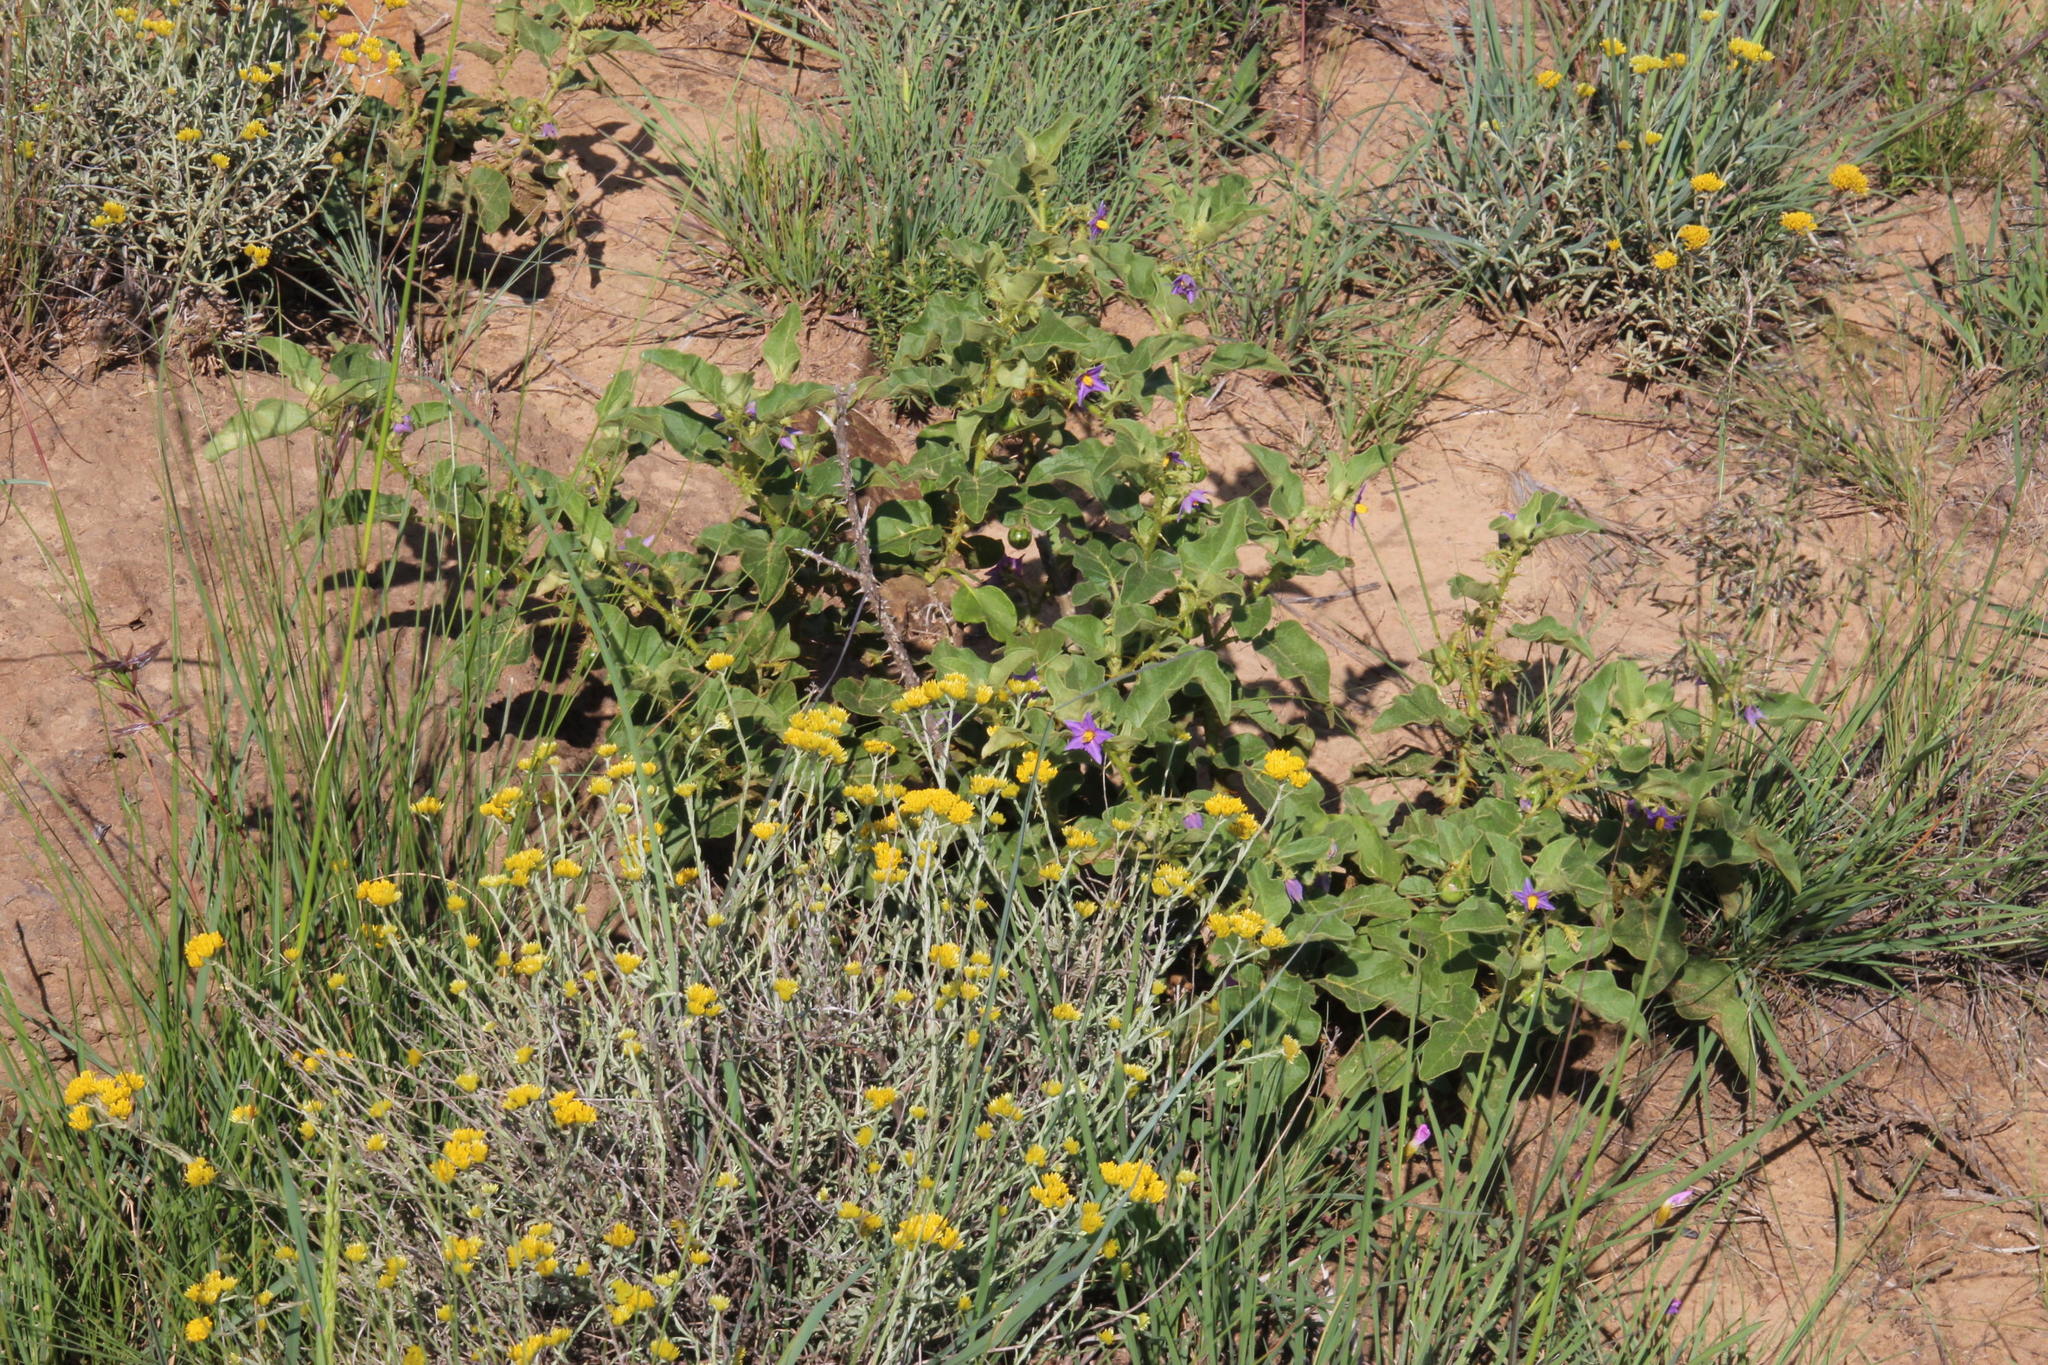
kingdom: Plantae
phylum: Tracheophyta
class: Magnoliopsida
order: Solanales
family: Solanaceae
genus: Solanum
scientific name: Solanum tomentosum
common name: Wild aubergine
